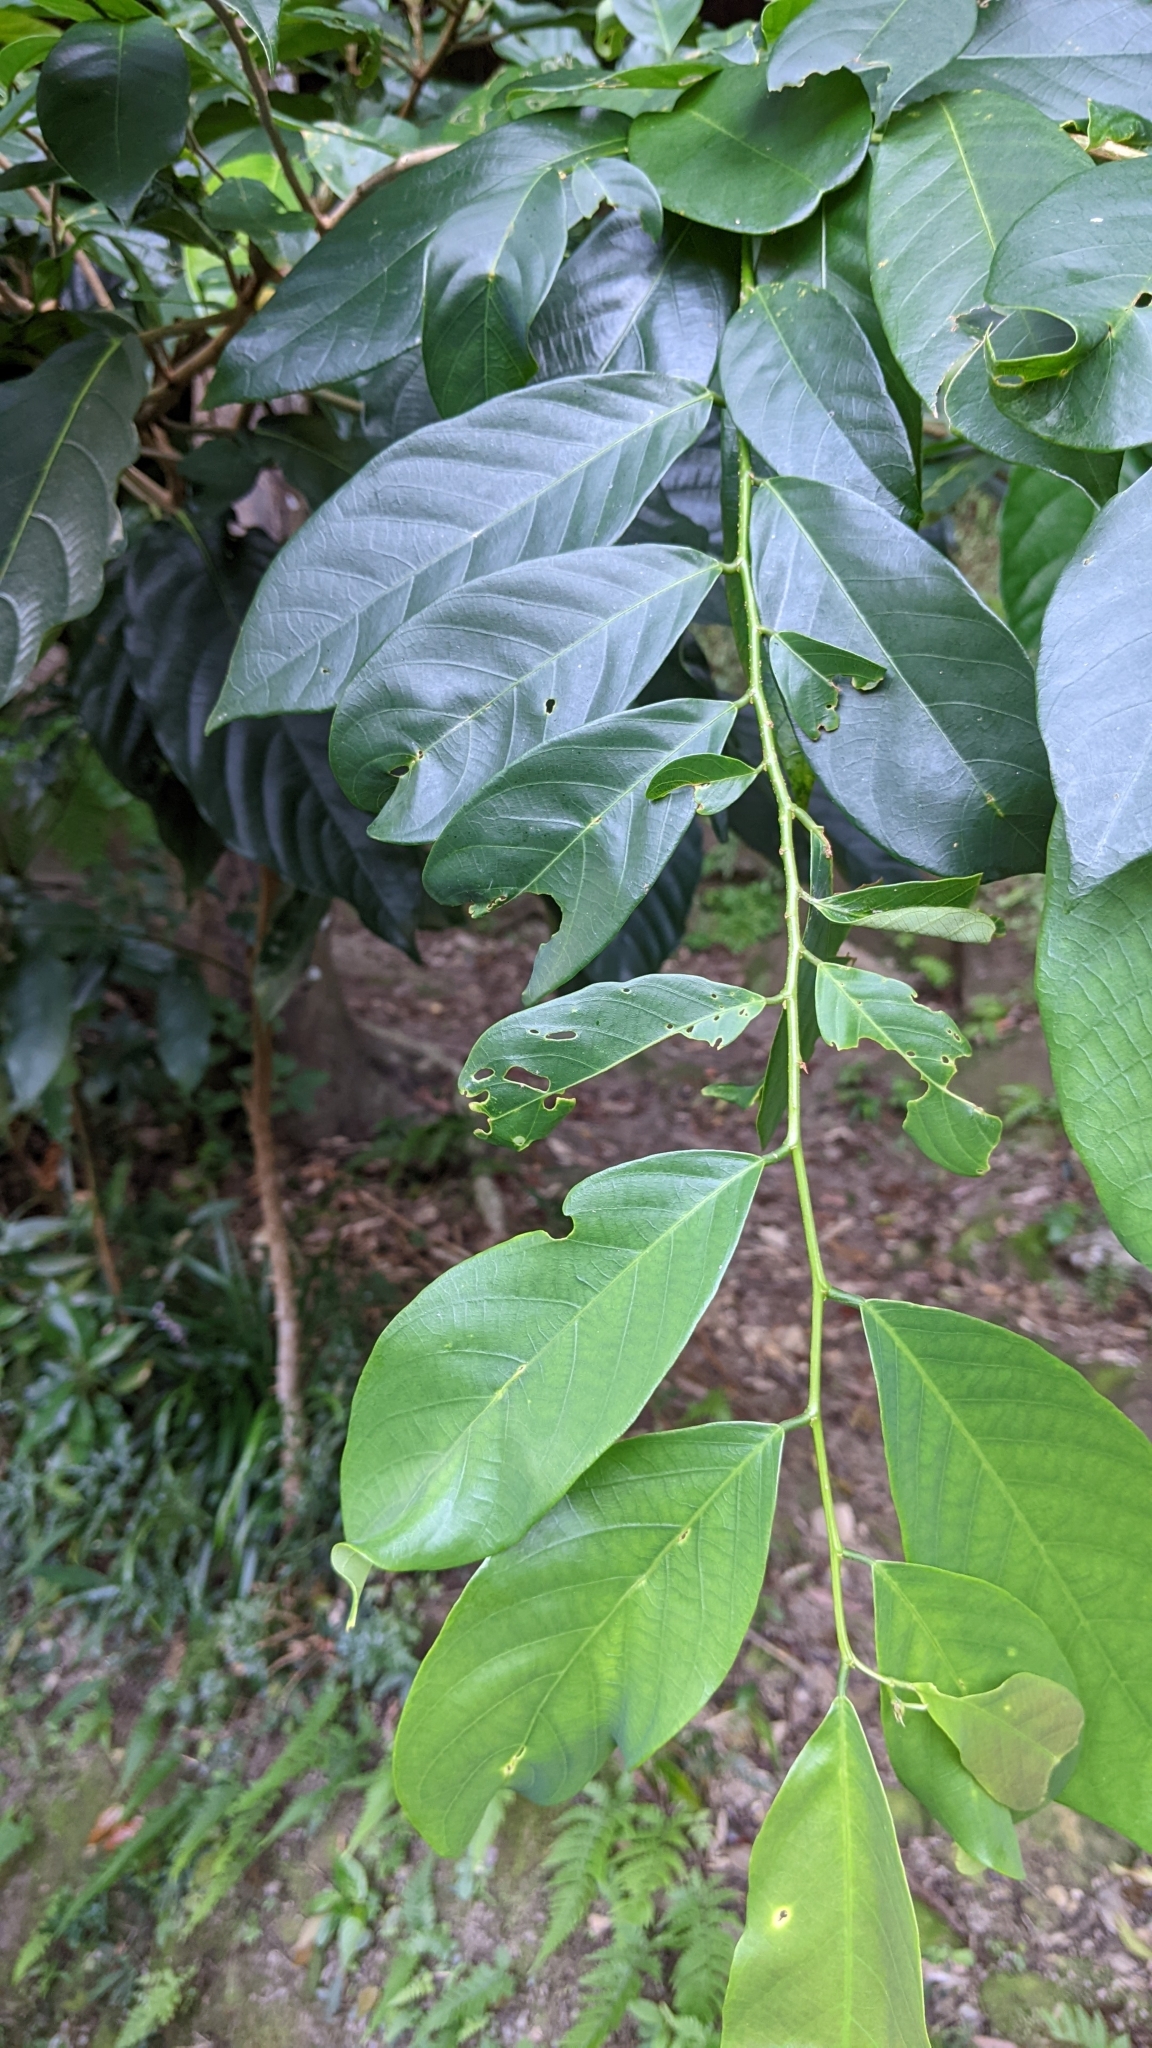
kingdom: Plantae
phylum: Tracheophyta
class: Magnoliopsida
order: Malpighiales
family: Phyllanthaceae
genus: Bridelia
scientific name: Bridelia balansae
